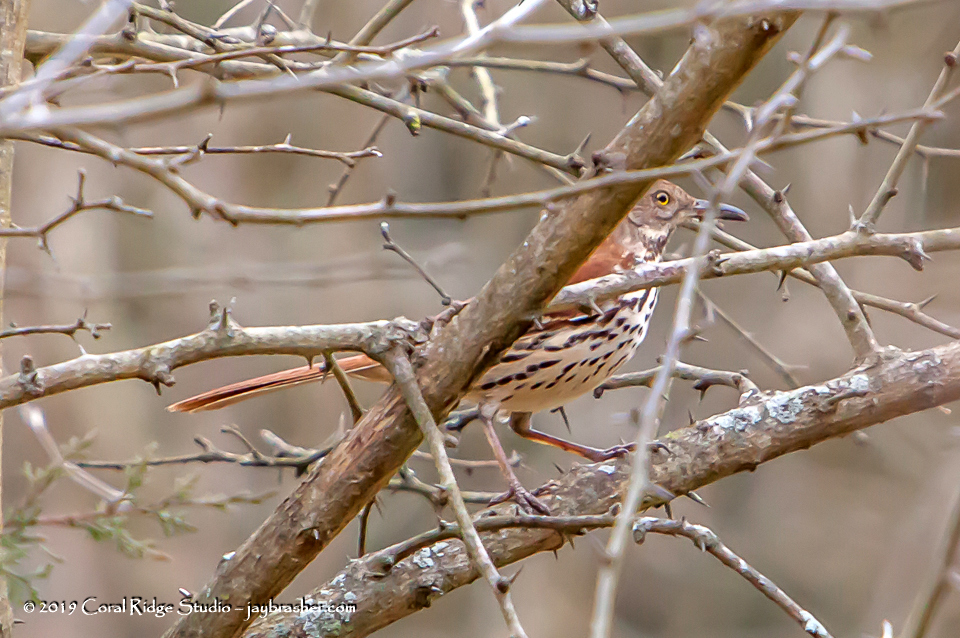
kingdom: Animalia
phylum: Chordata
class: Aves
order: Passeriformes
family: Mimidae
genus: Toxostoma
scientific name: Toxostoma rufum
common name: Brown thrasher
